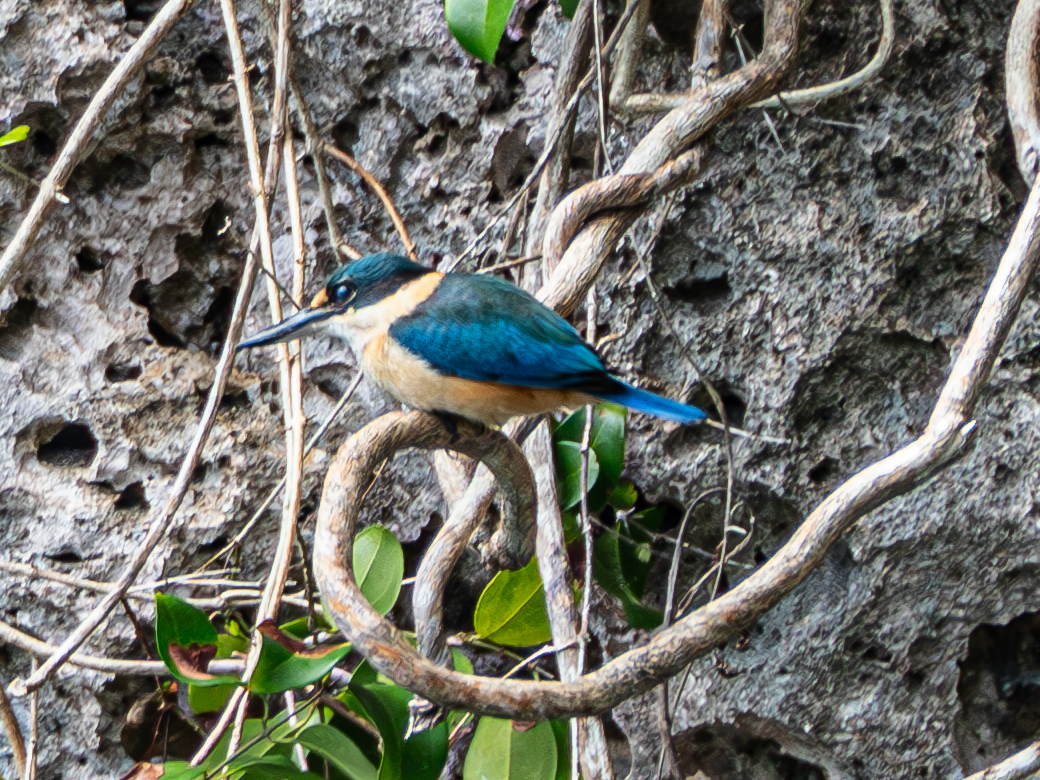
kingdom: Animalia
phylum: Chordata
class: Aves
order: Coraciiformes
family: Alcedinidae
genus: Todiramphus
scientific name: Todiramphus sanctus
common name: Sacred kingfisher
